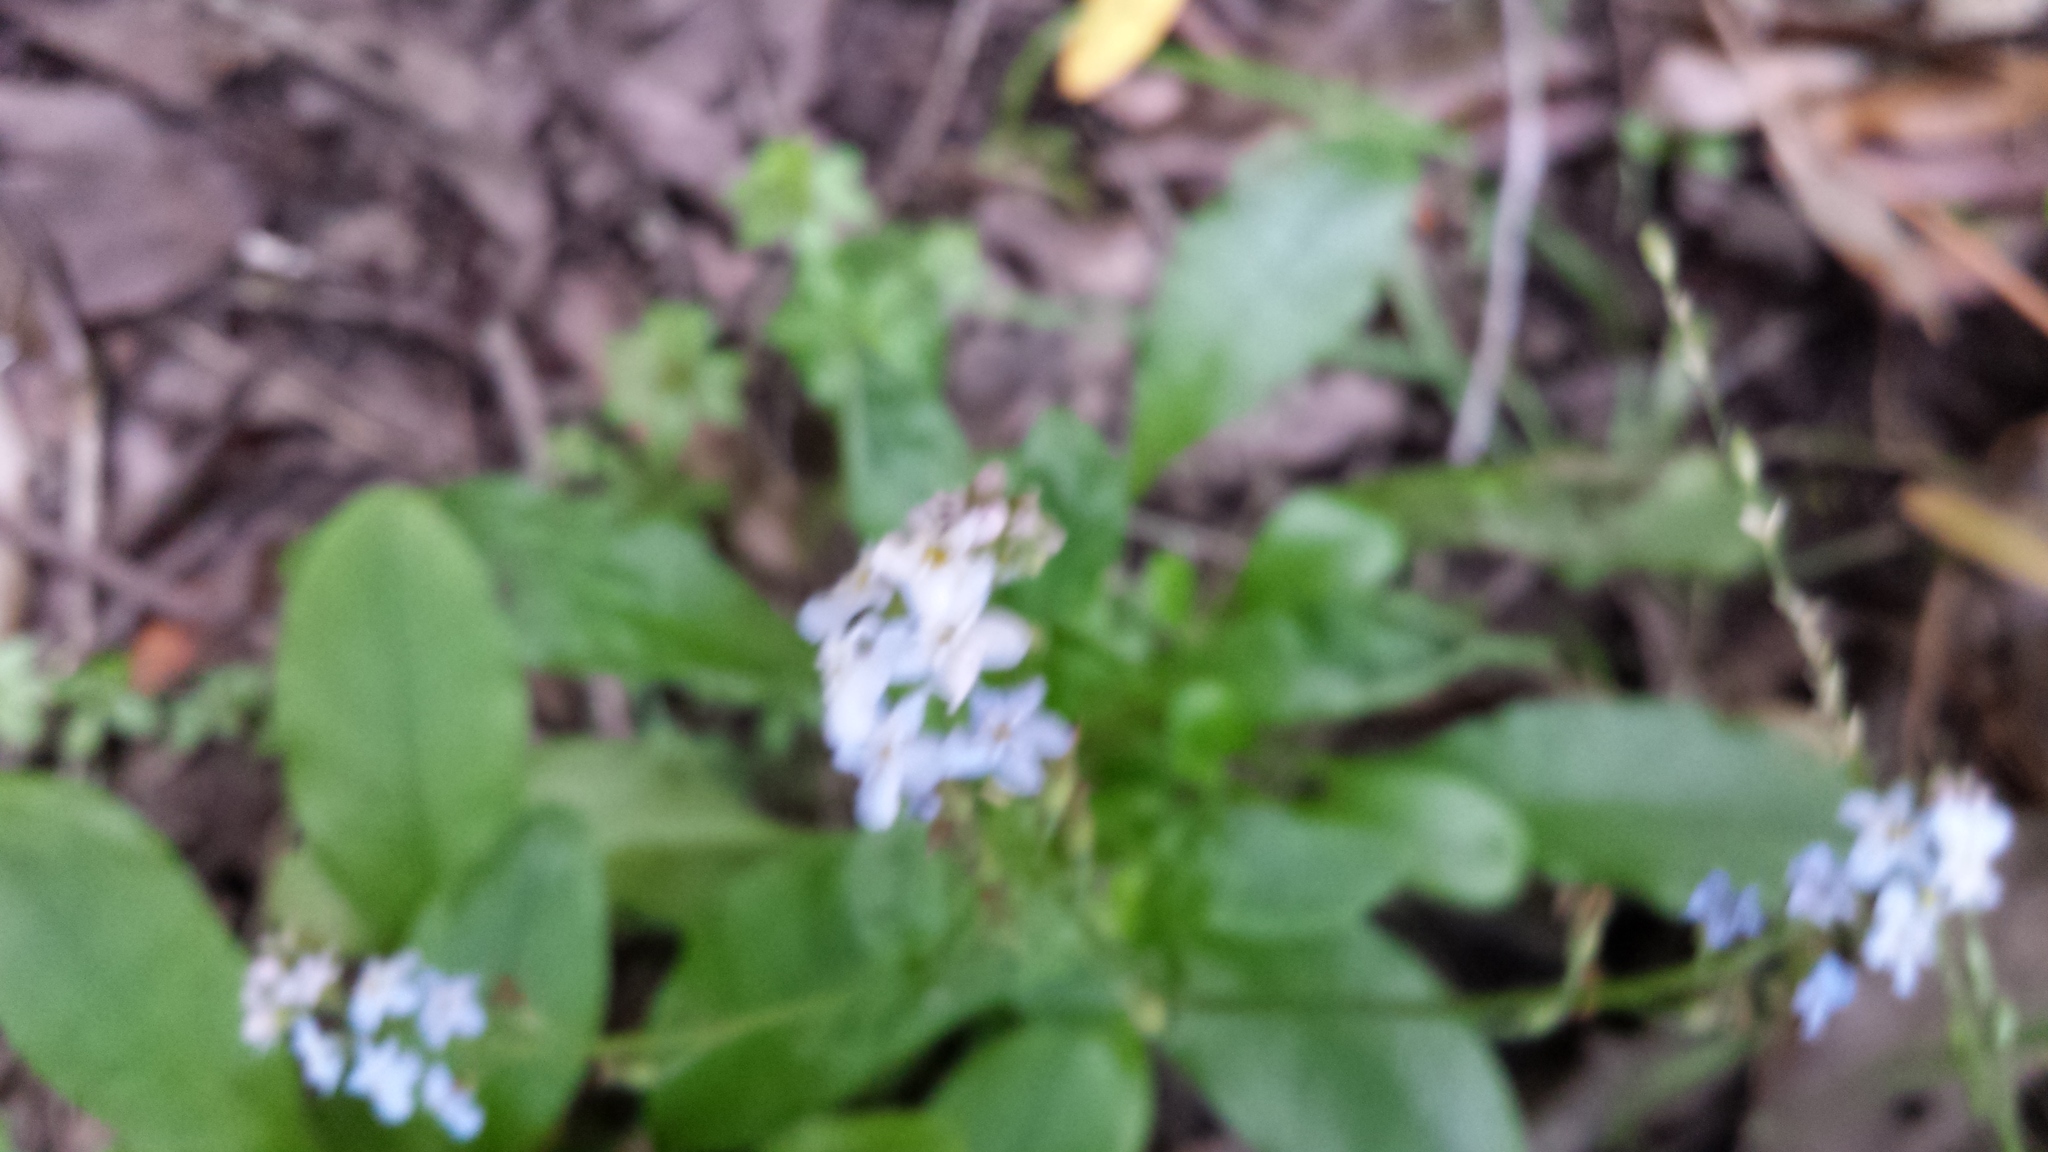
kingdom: Plantae
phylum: Tracheophyta
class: Magnoliopsida
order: Boraginales
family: Boraginaceae
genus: Myosotis
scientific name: Myosotis latifolia
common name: Broadleaf forget-me-not
